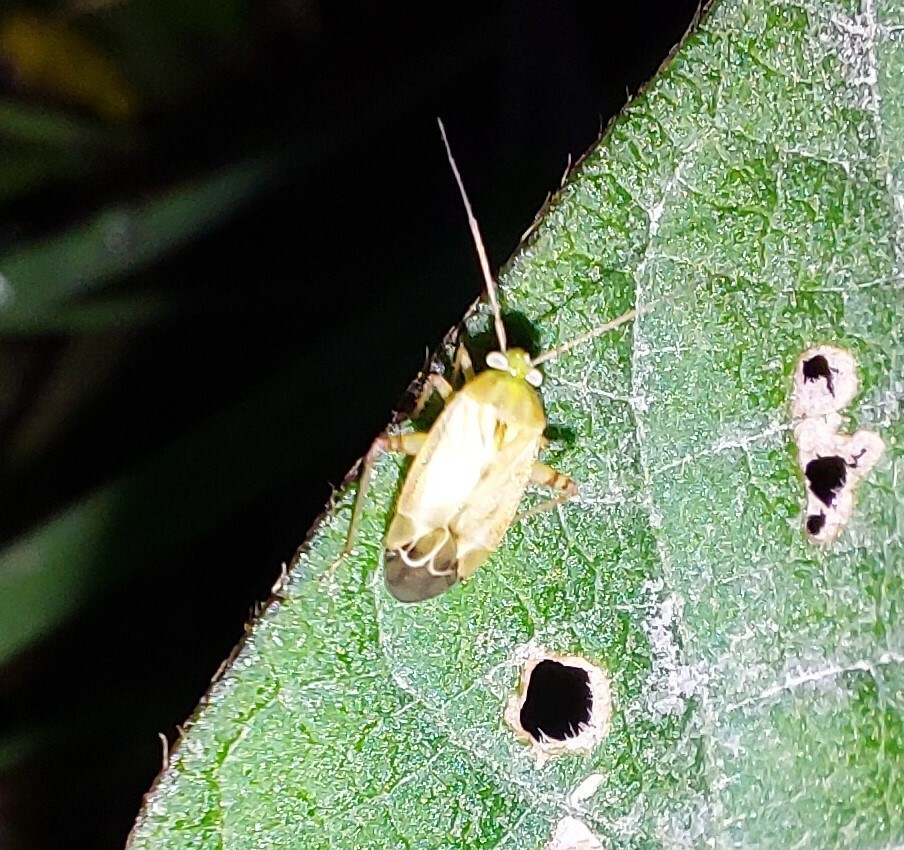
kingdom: Animalia
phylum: Arthropoda
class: Insecta
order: Hemiptera
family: Miridae
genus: Taylorilygus
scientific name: Taylorilygus apicalis
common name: Plant bug
